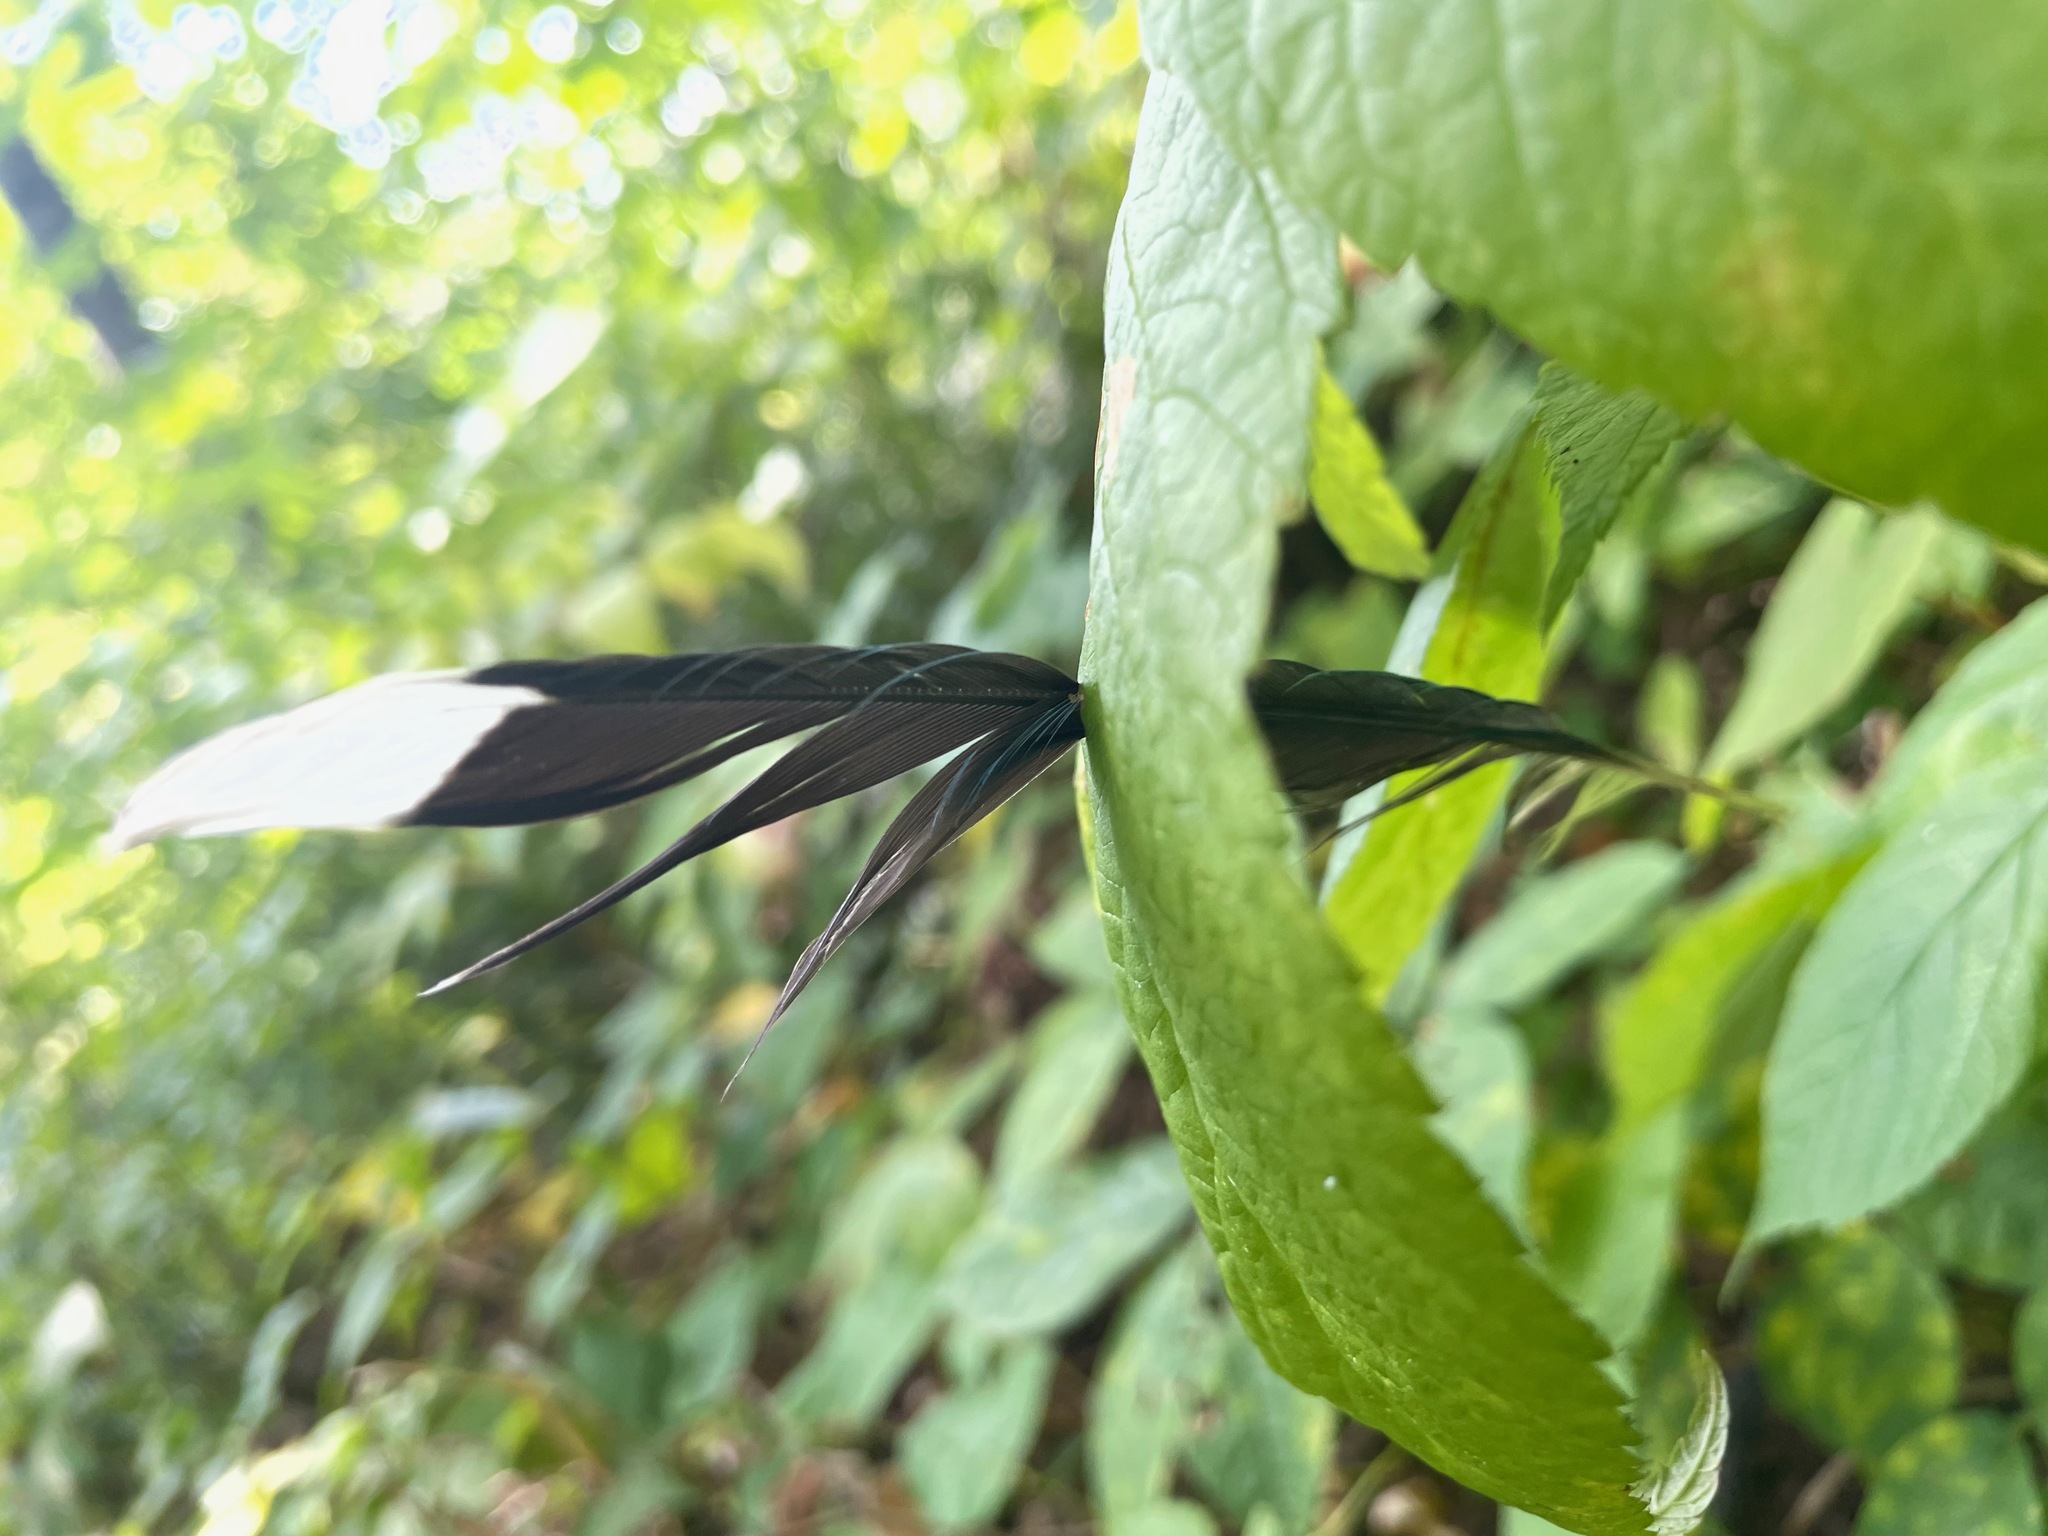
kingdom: Animalia
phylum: Chordata
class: Aves
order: Passeriformes
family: Corvidae
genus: Cyanocitta
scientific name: Cyanocitta cristata
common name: Blue jay
